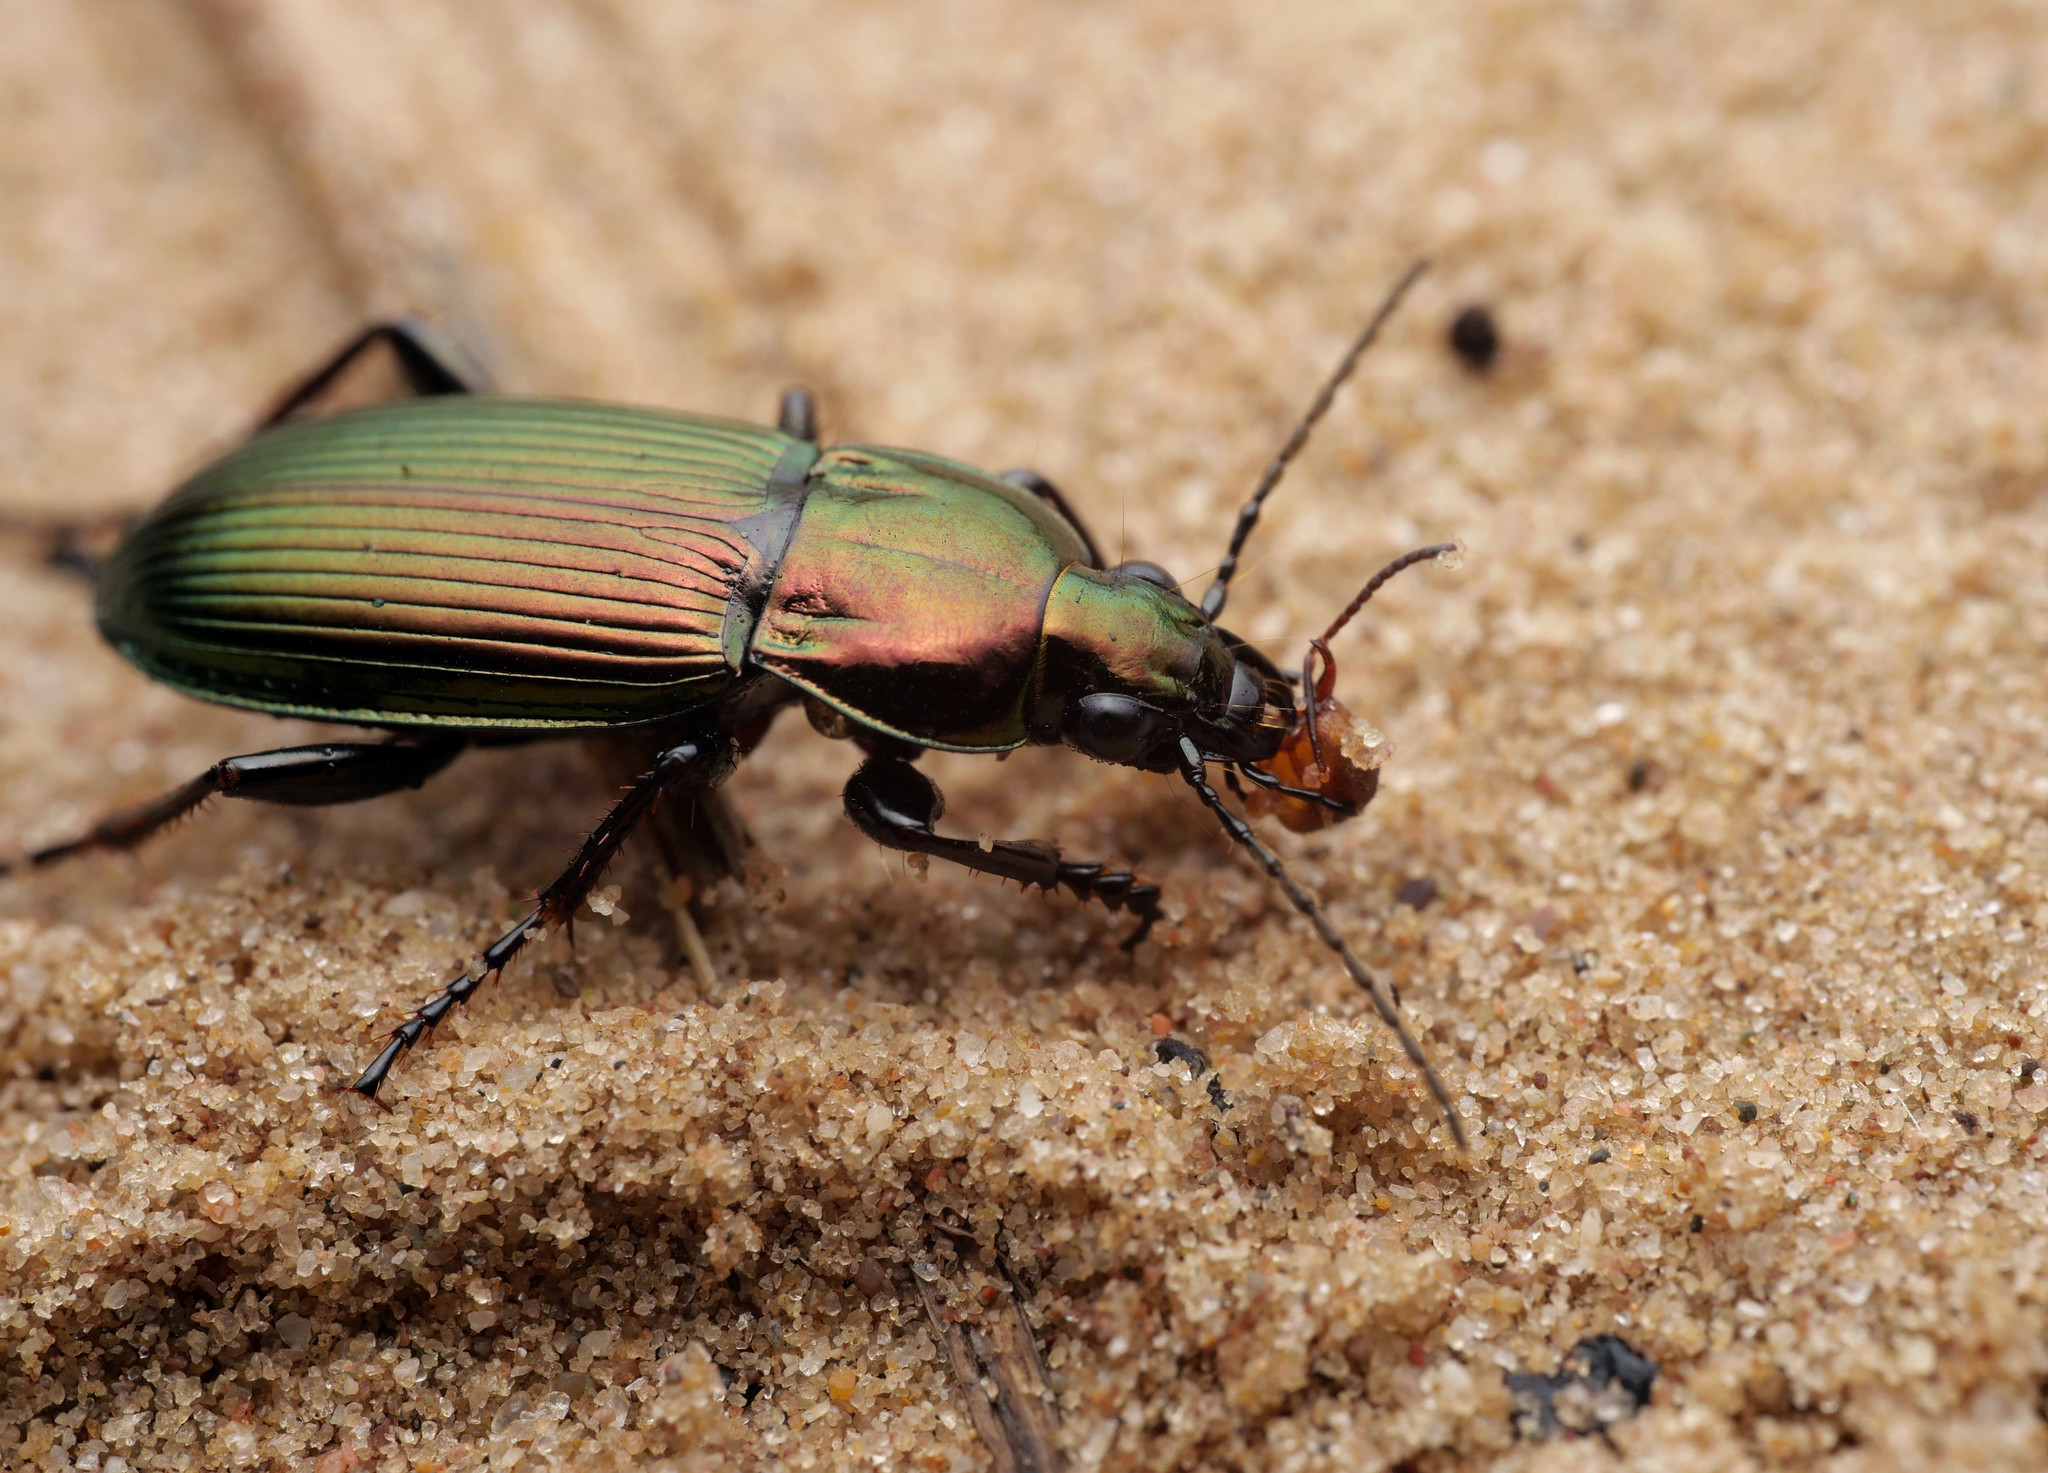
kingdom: Animalia
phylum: Arthropoda
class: Insecta
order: Coleoptera
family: Carabidae
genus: Poecilus
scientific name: Poecilus lepidus
